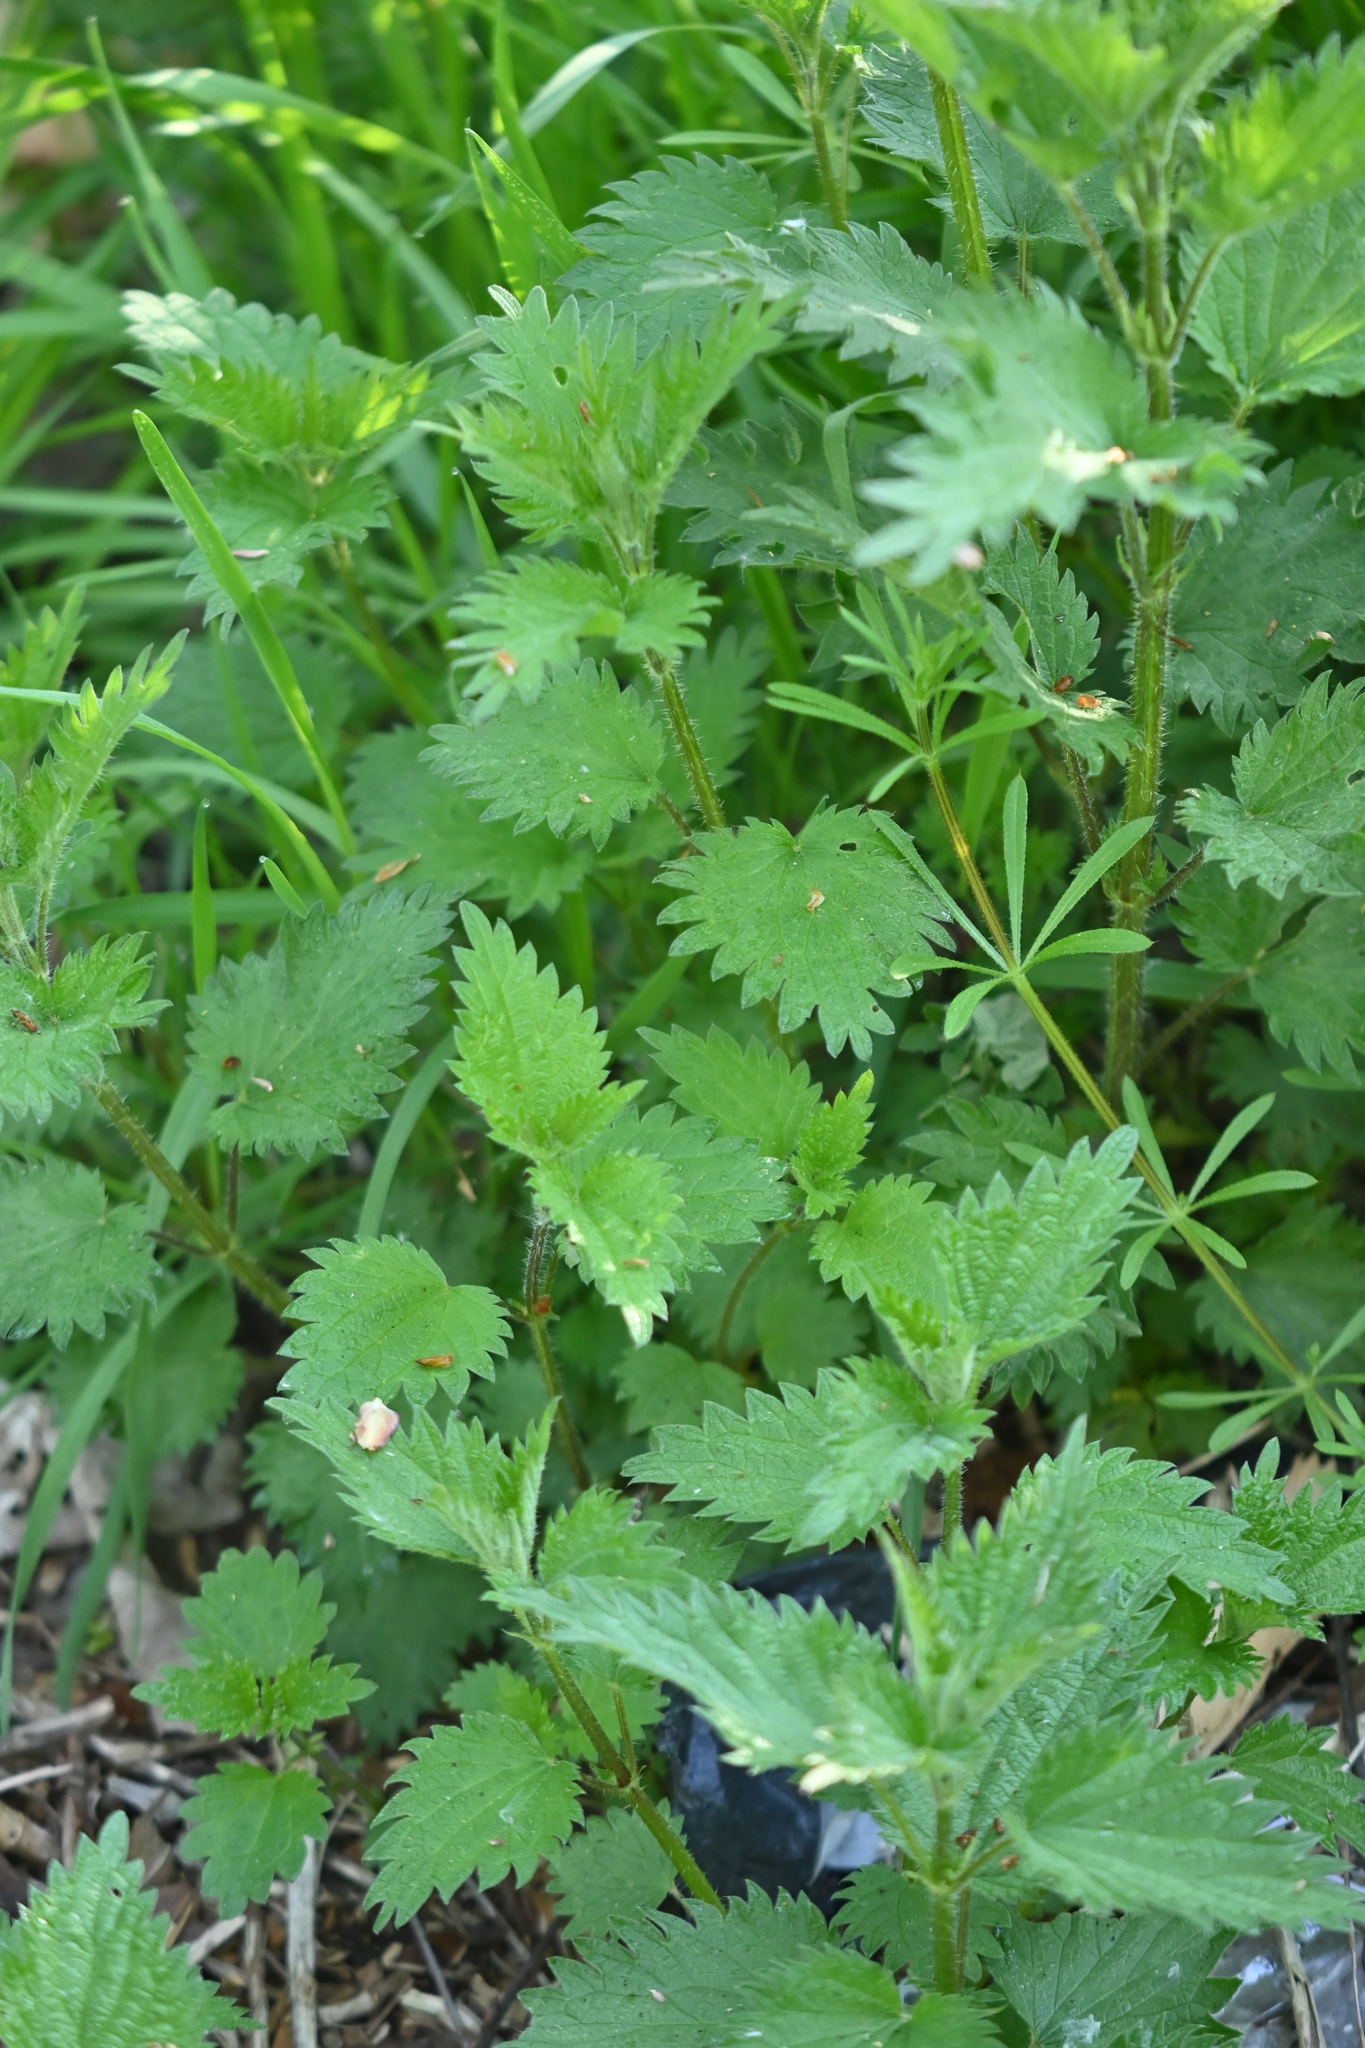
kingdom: Plantae
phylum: Tracheophyta
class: Magnoliopsida
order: Rosales
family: Urticaceae
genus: Urtica
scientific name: Urtica dioica
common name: Common nettle
